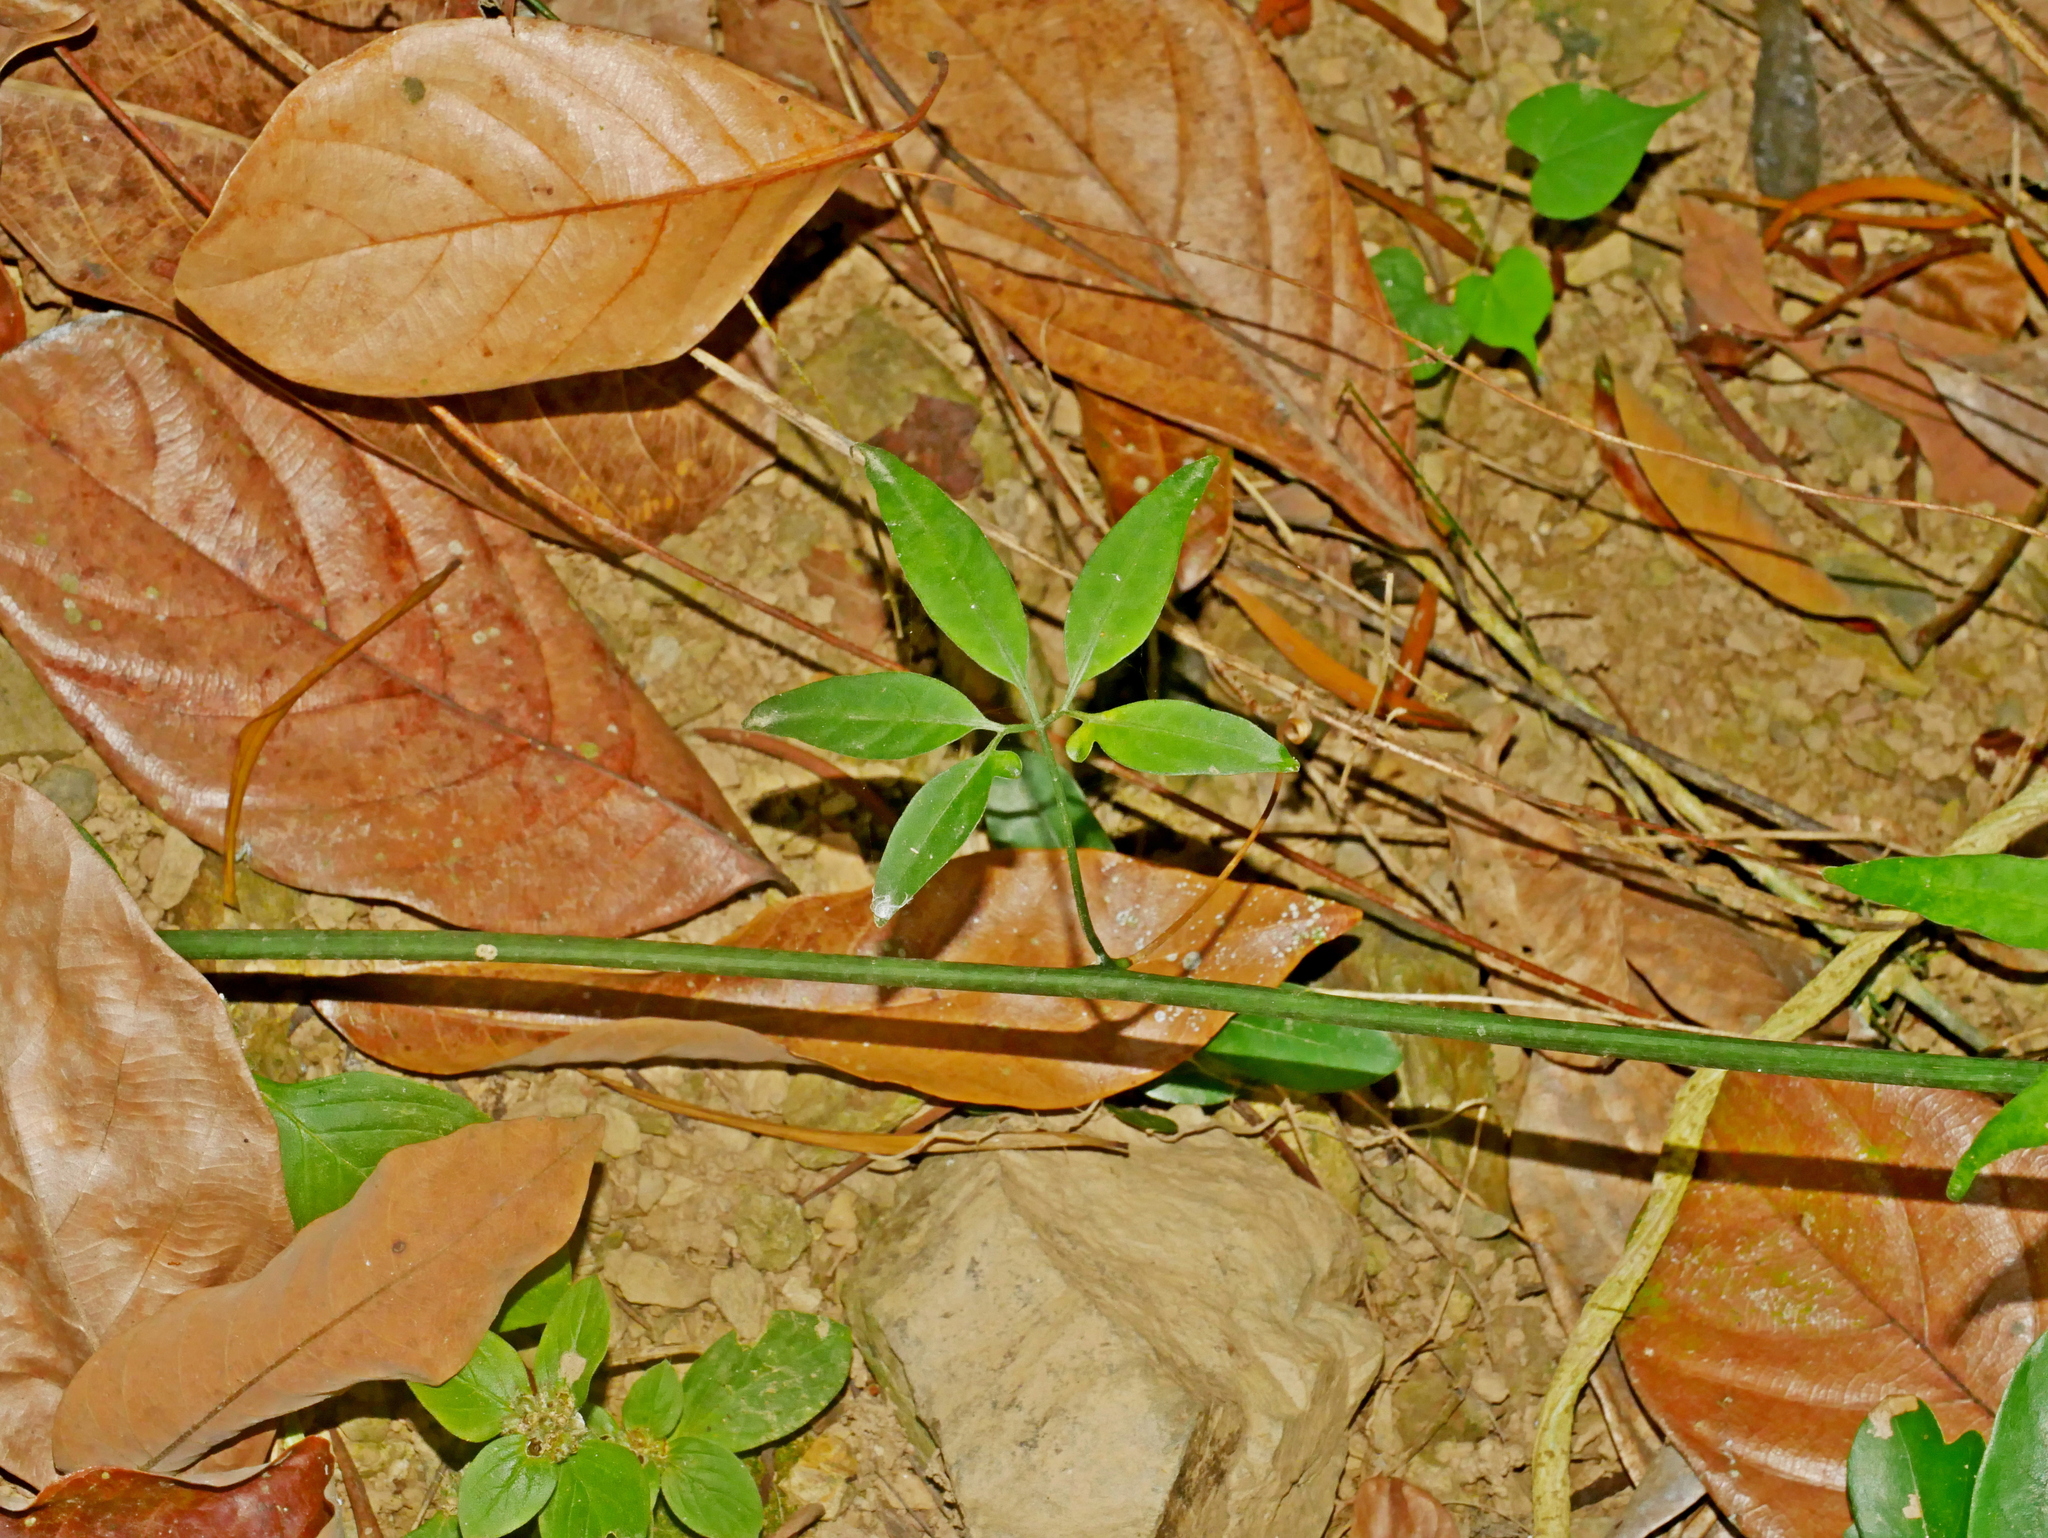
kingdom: Plantae
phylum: Tracheophyta
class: Magnoliopsida
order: Cucurbitales
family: Cucurbitaceae
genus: Neoalsomitra
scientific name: Neoalsomitra clavigera
